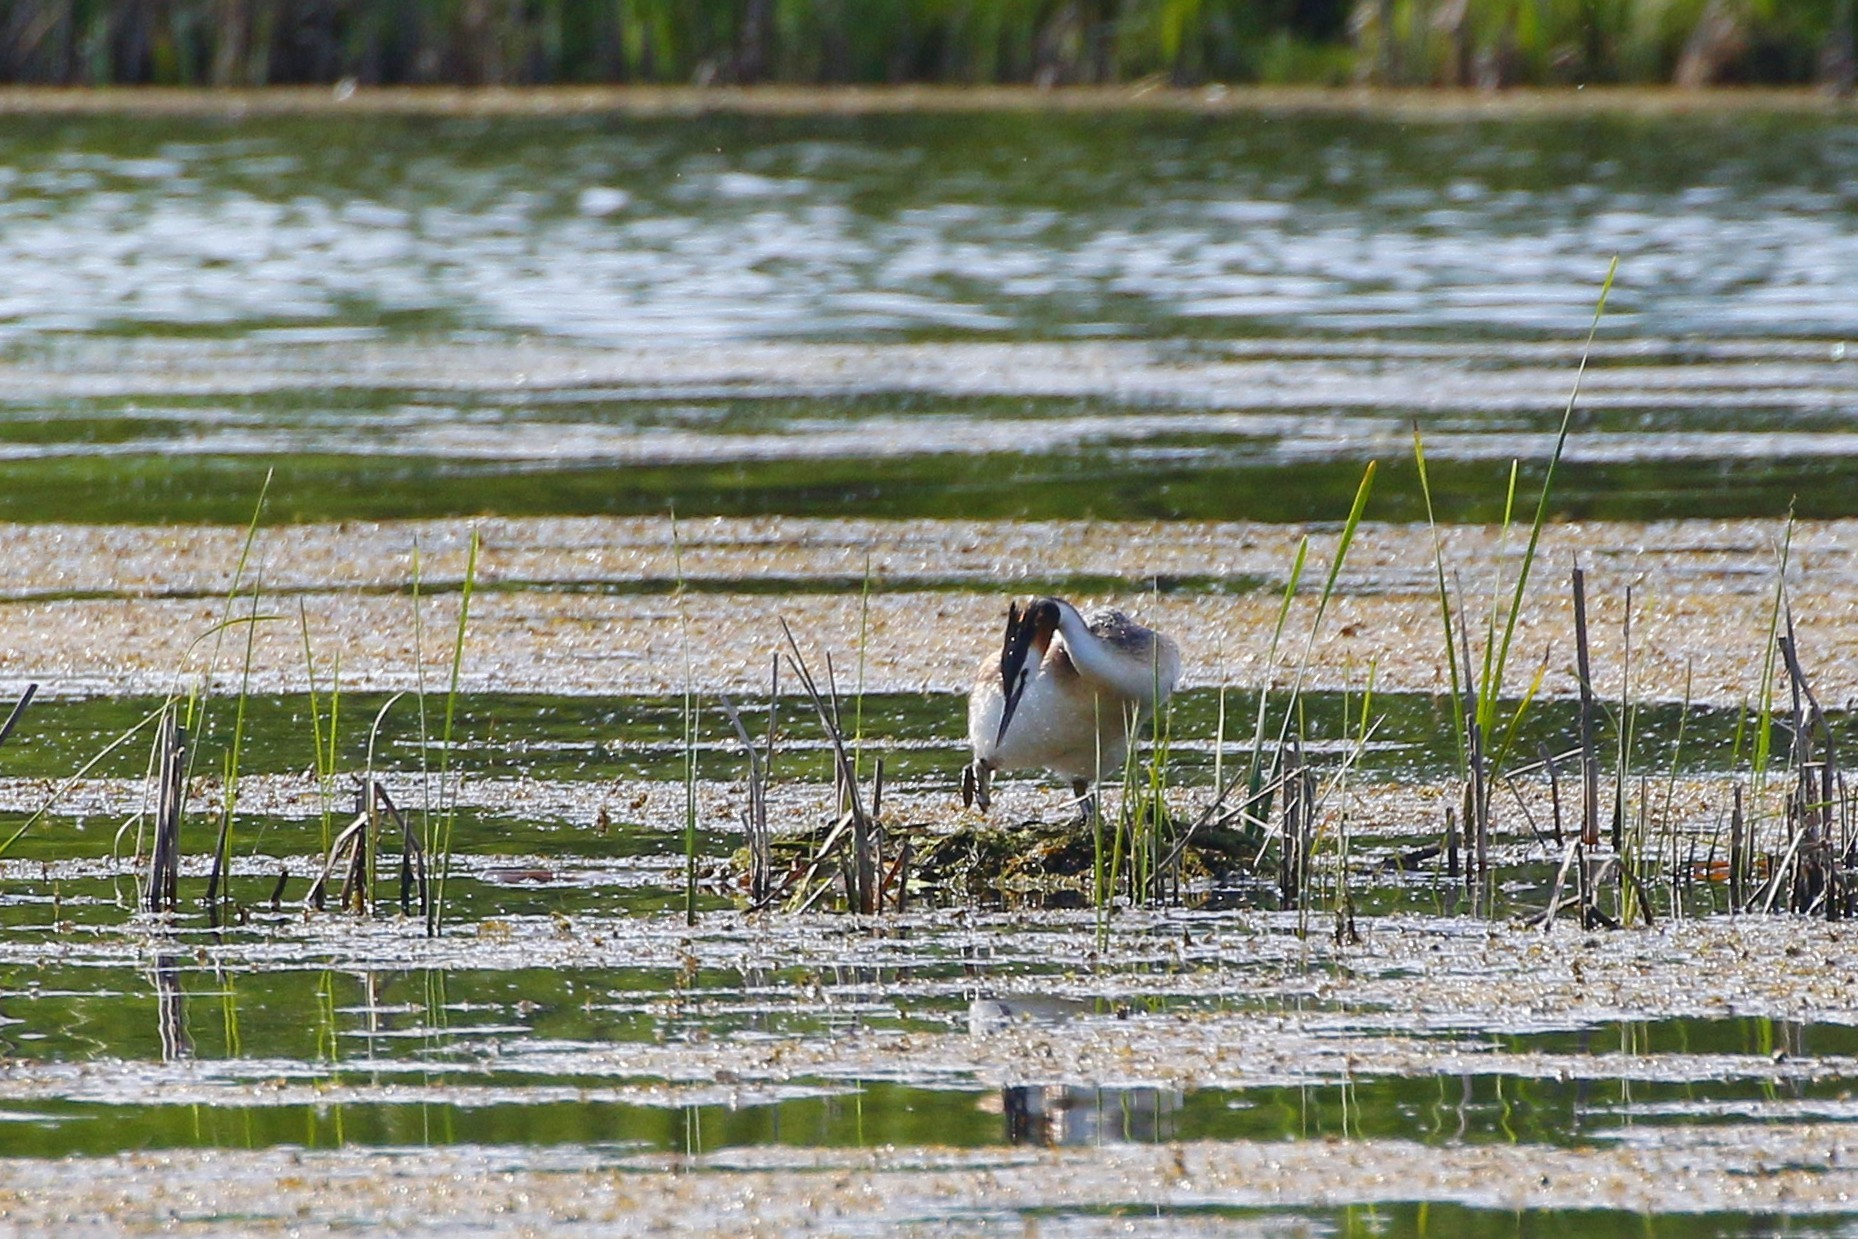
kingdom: Animalia
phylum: Chordata
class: Aves
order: Podicipediformes
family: Podicipedidae
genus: Podiceps
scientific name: Podiceps cristatus
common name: Great crested grebe
